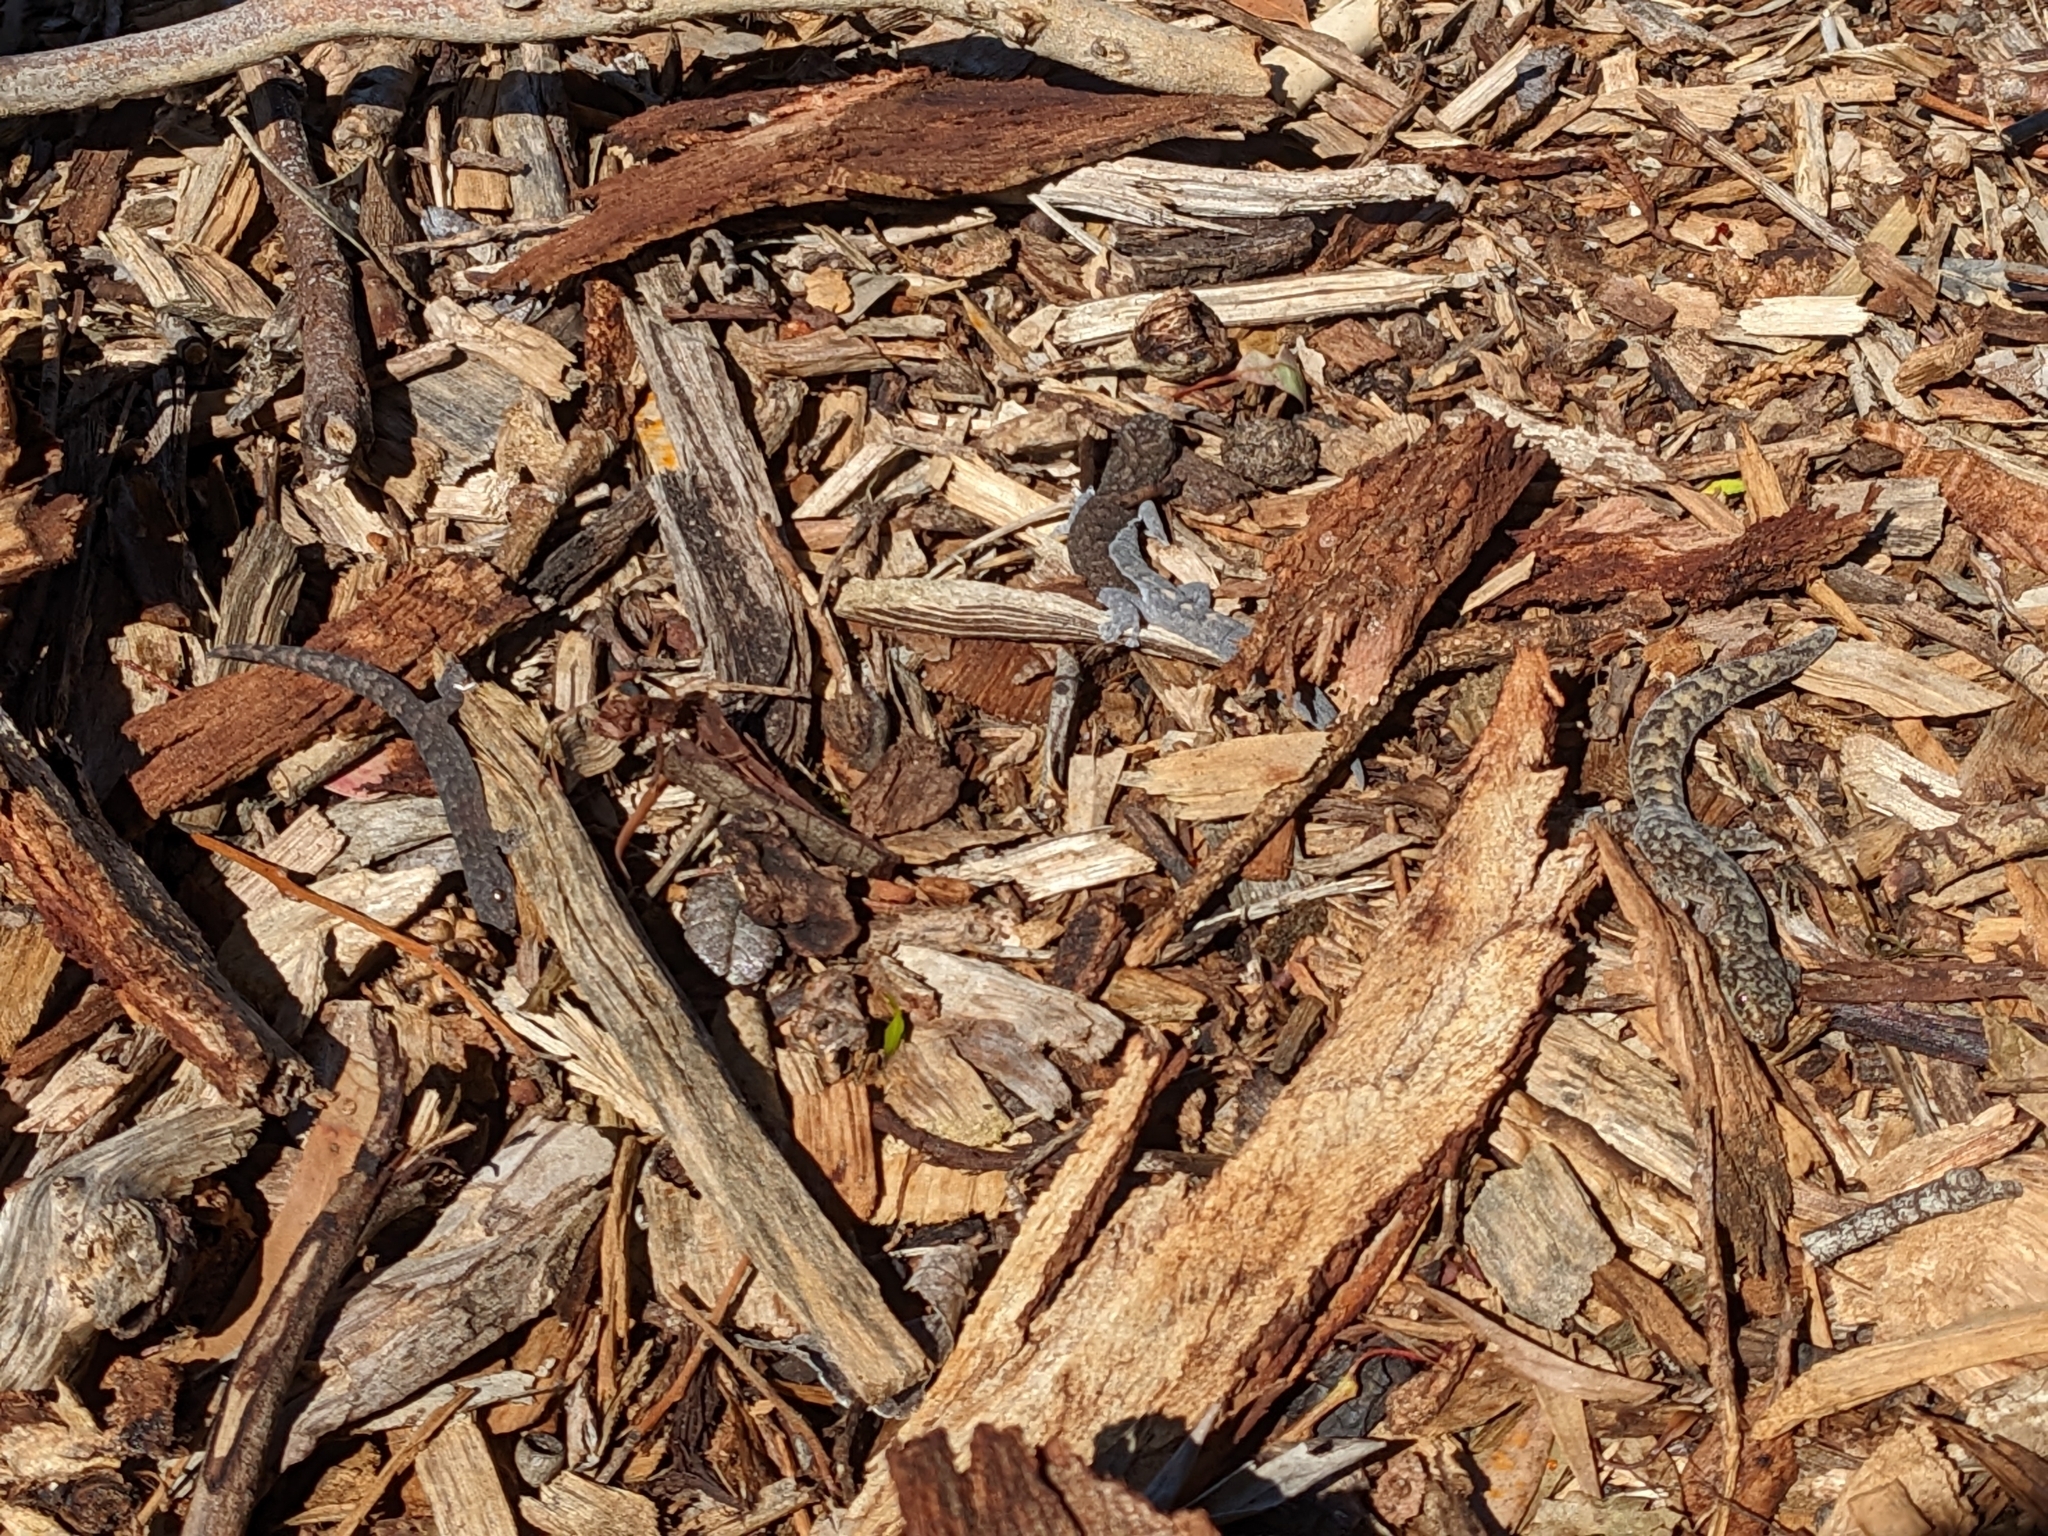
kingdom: Animalia
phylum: Chordata
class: Squamata
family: Gekkonidae
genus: Christinus
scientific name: Christinus marmoratus
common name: Marbled gecko
